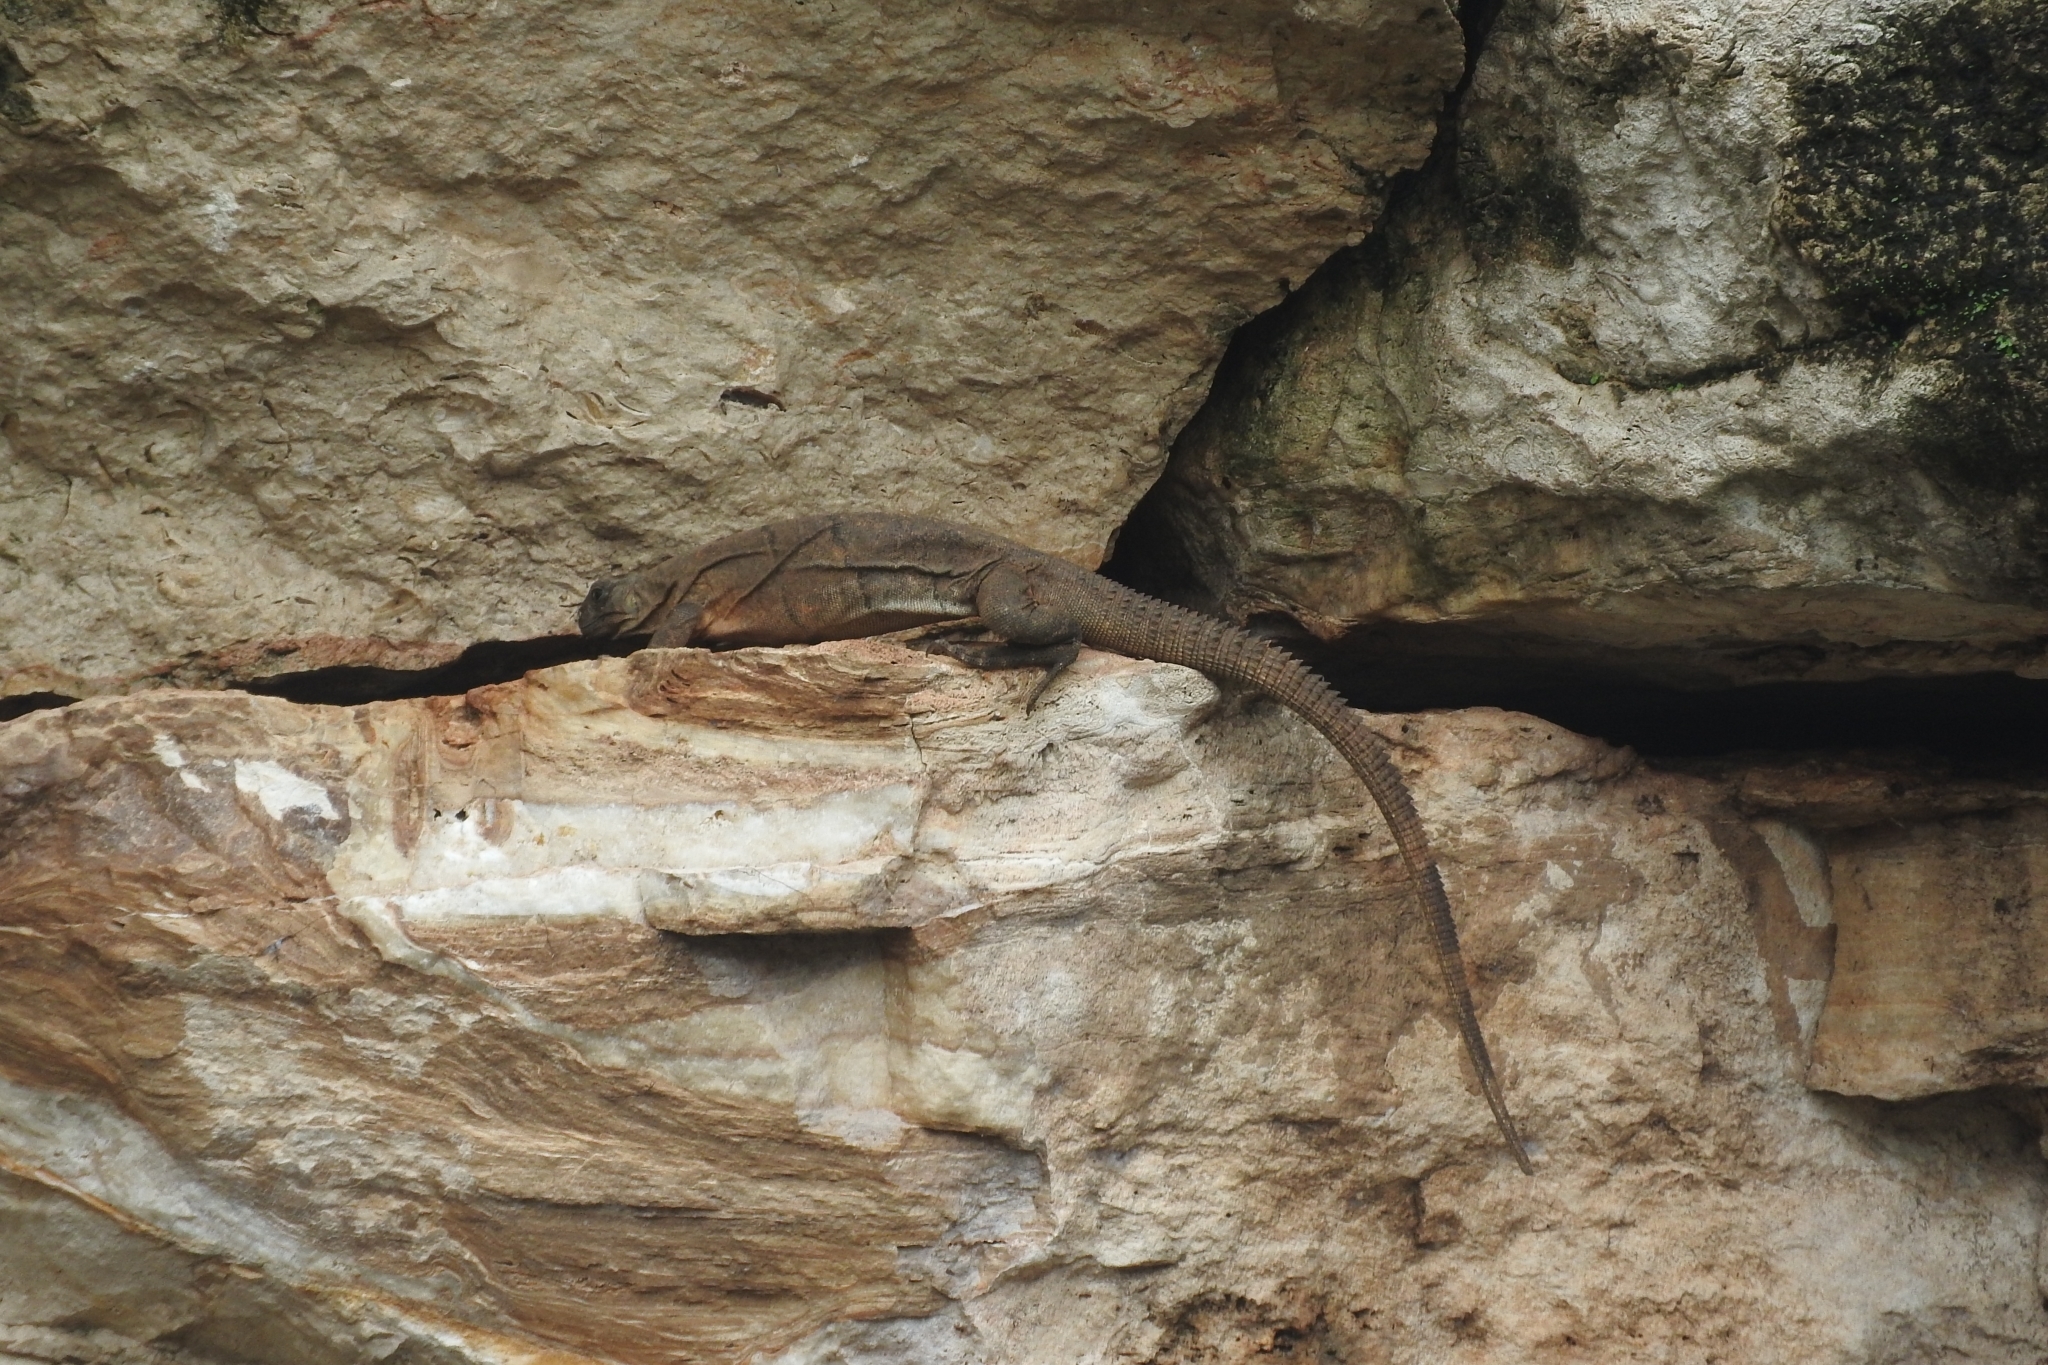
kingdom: Animalia
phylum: Chordata
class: Squamata
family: Iguanidae
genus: Ctenosaura
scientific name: Ctenosaura similis
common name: Black spiny-tailed iguana
